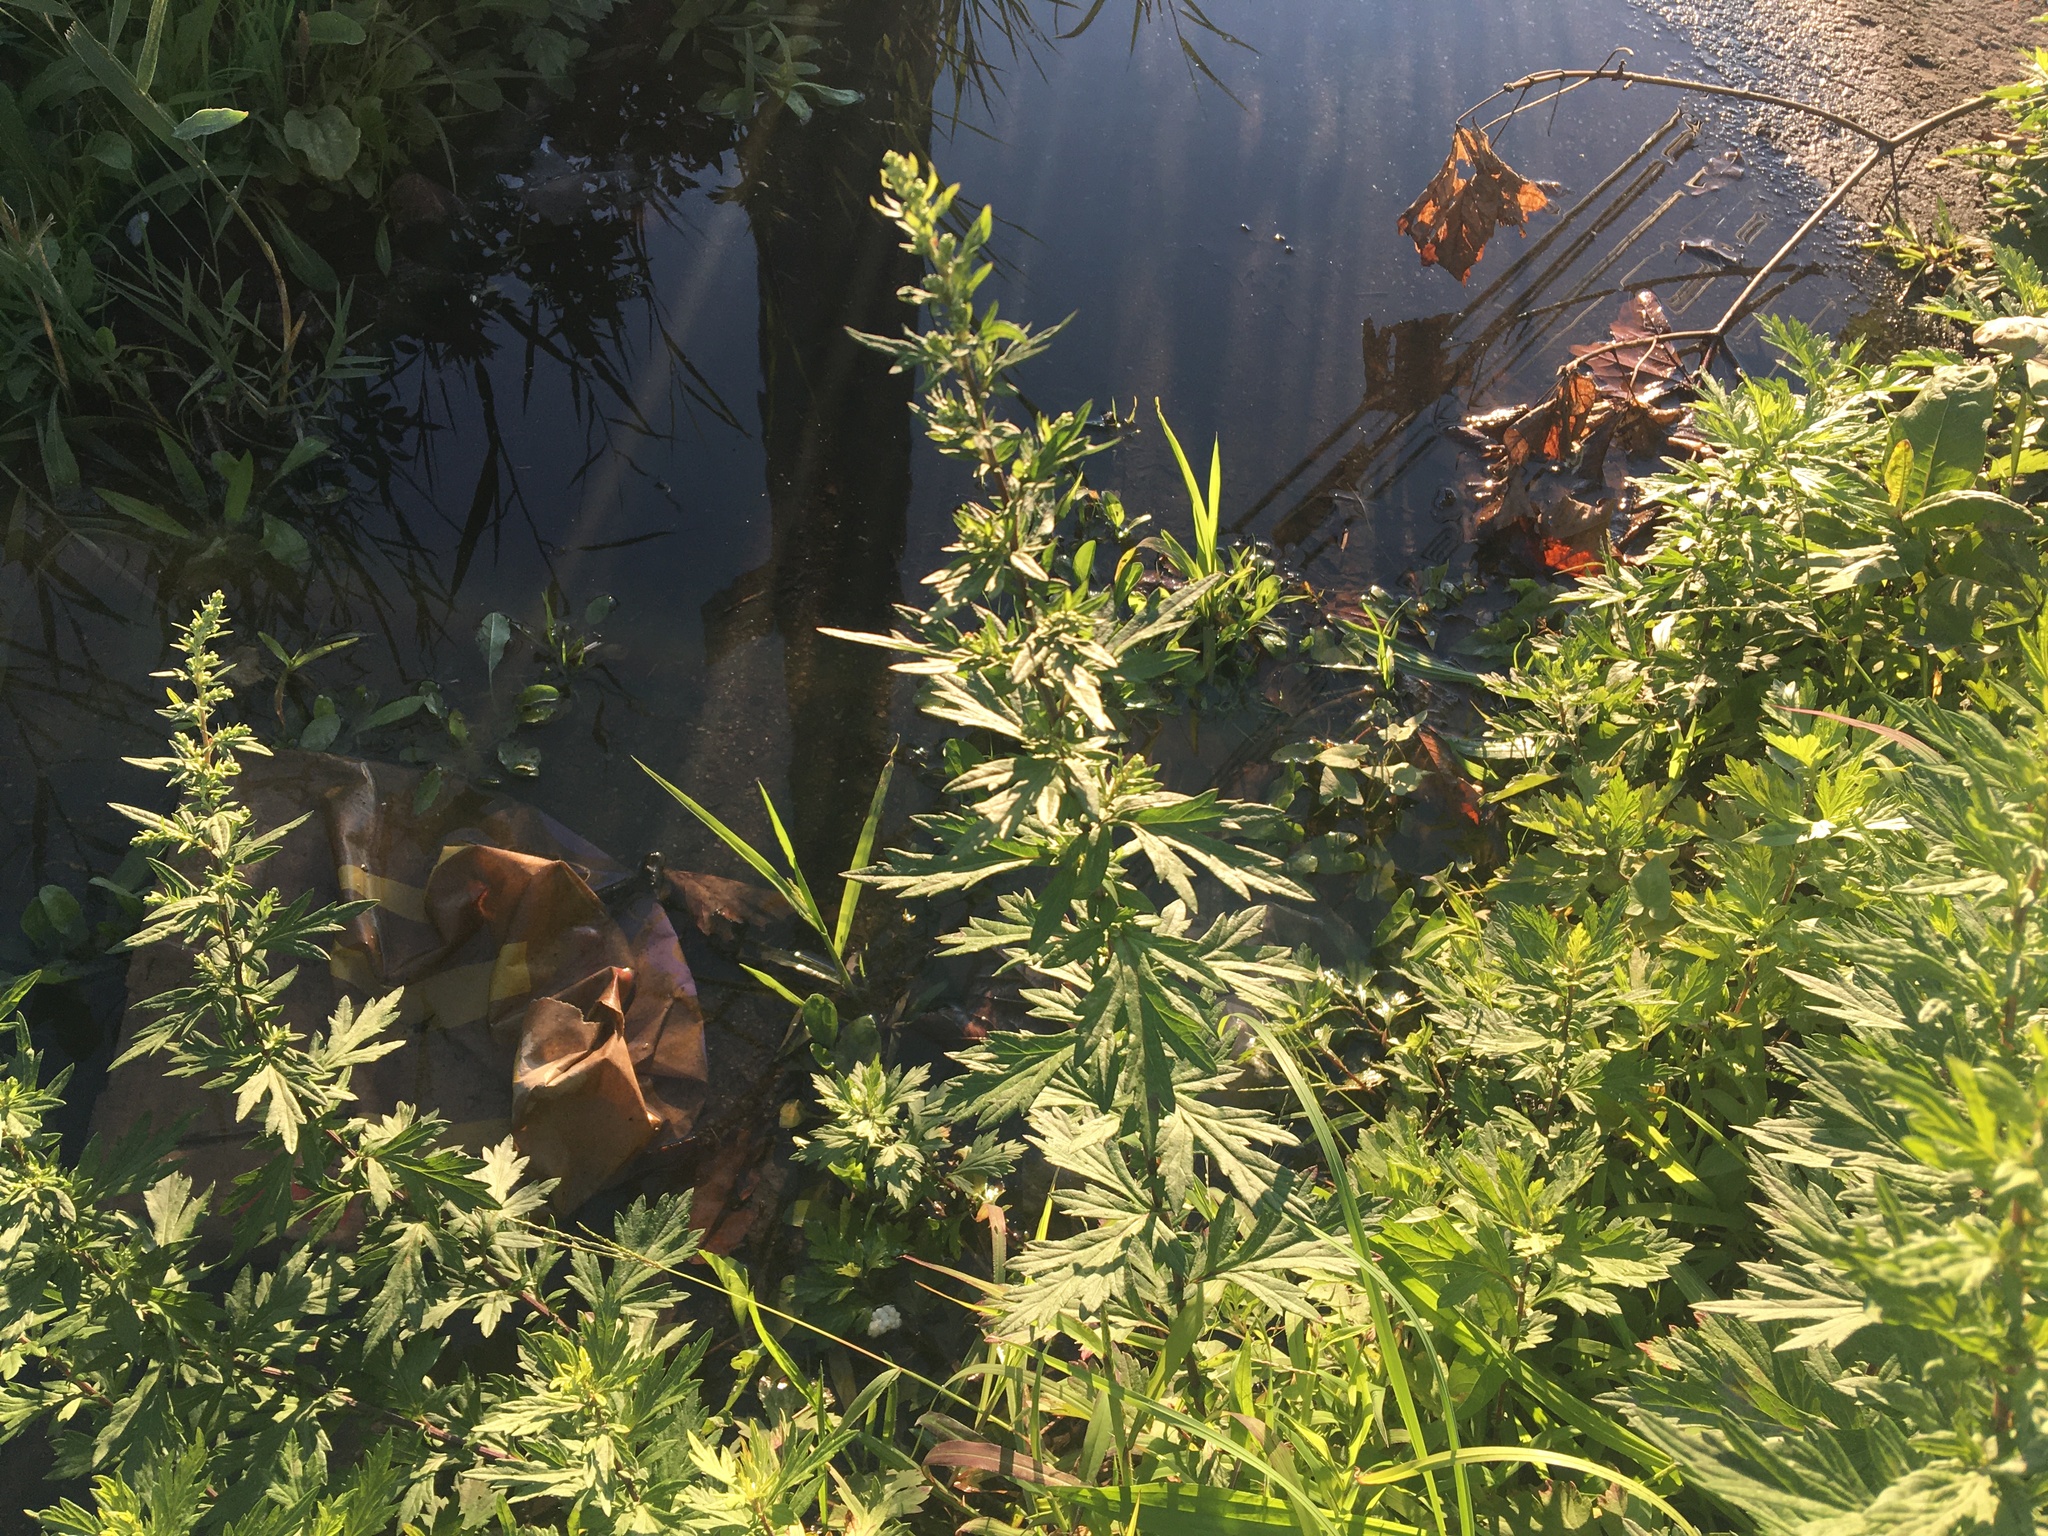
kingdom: Plantae
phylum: Tracheophyta
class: Magnoliopsida
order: Asterales
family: Asteraceae
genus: Artemisia
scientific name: Artemisia vulgaris
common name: Mugwort
